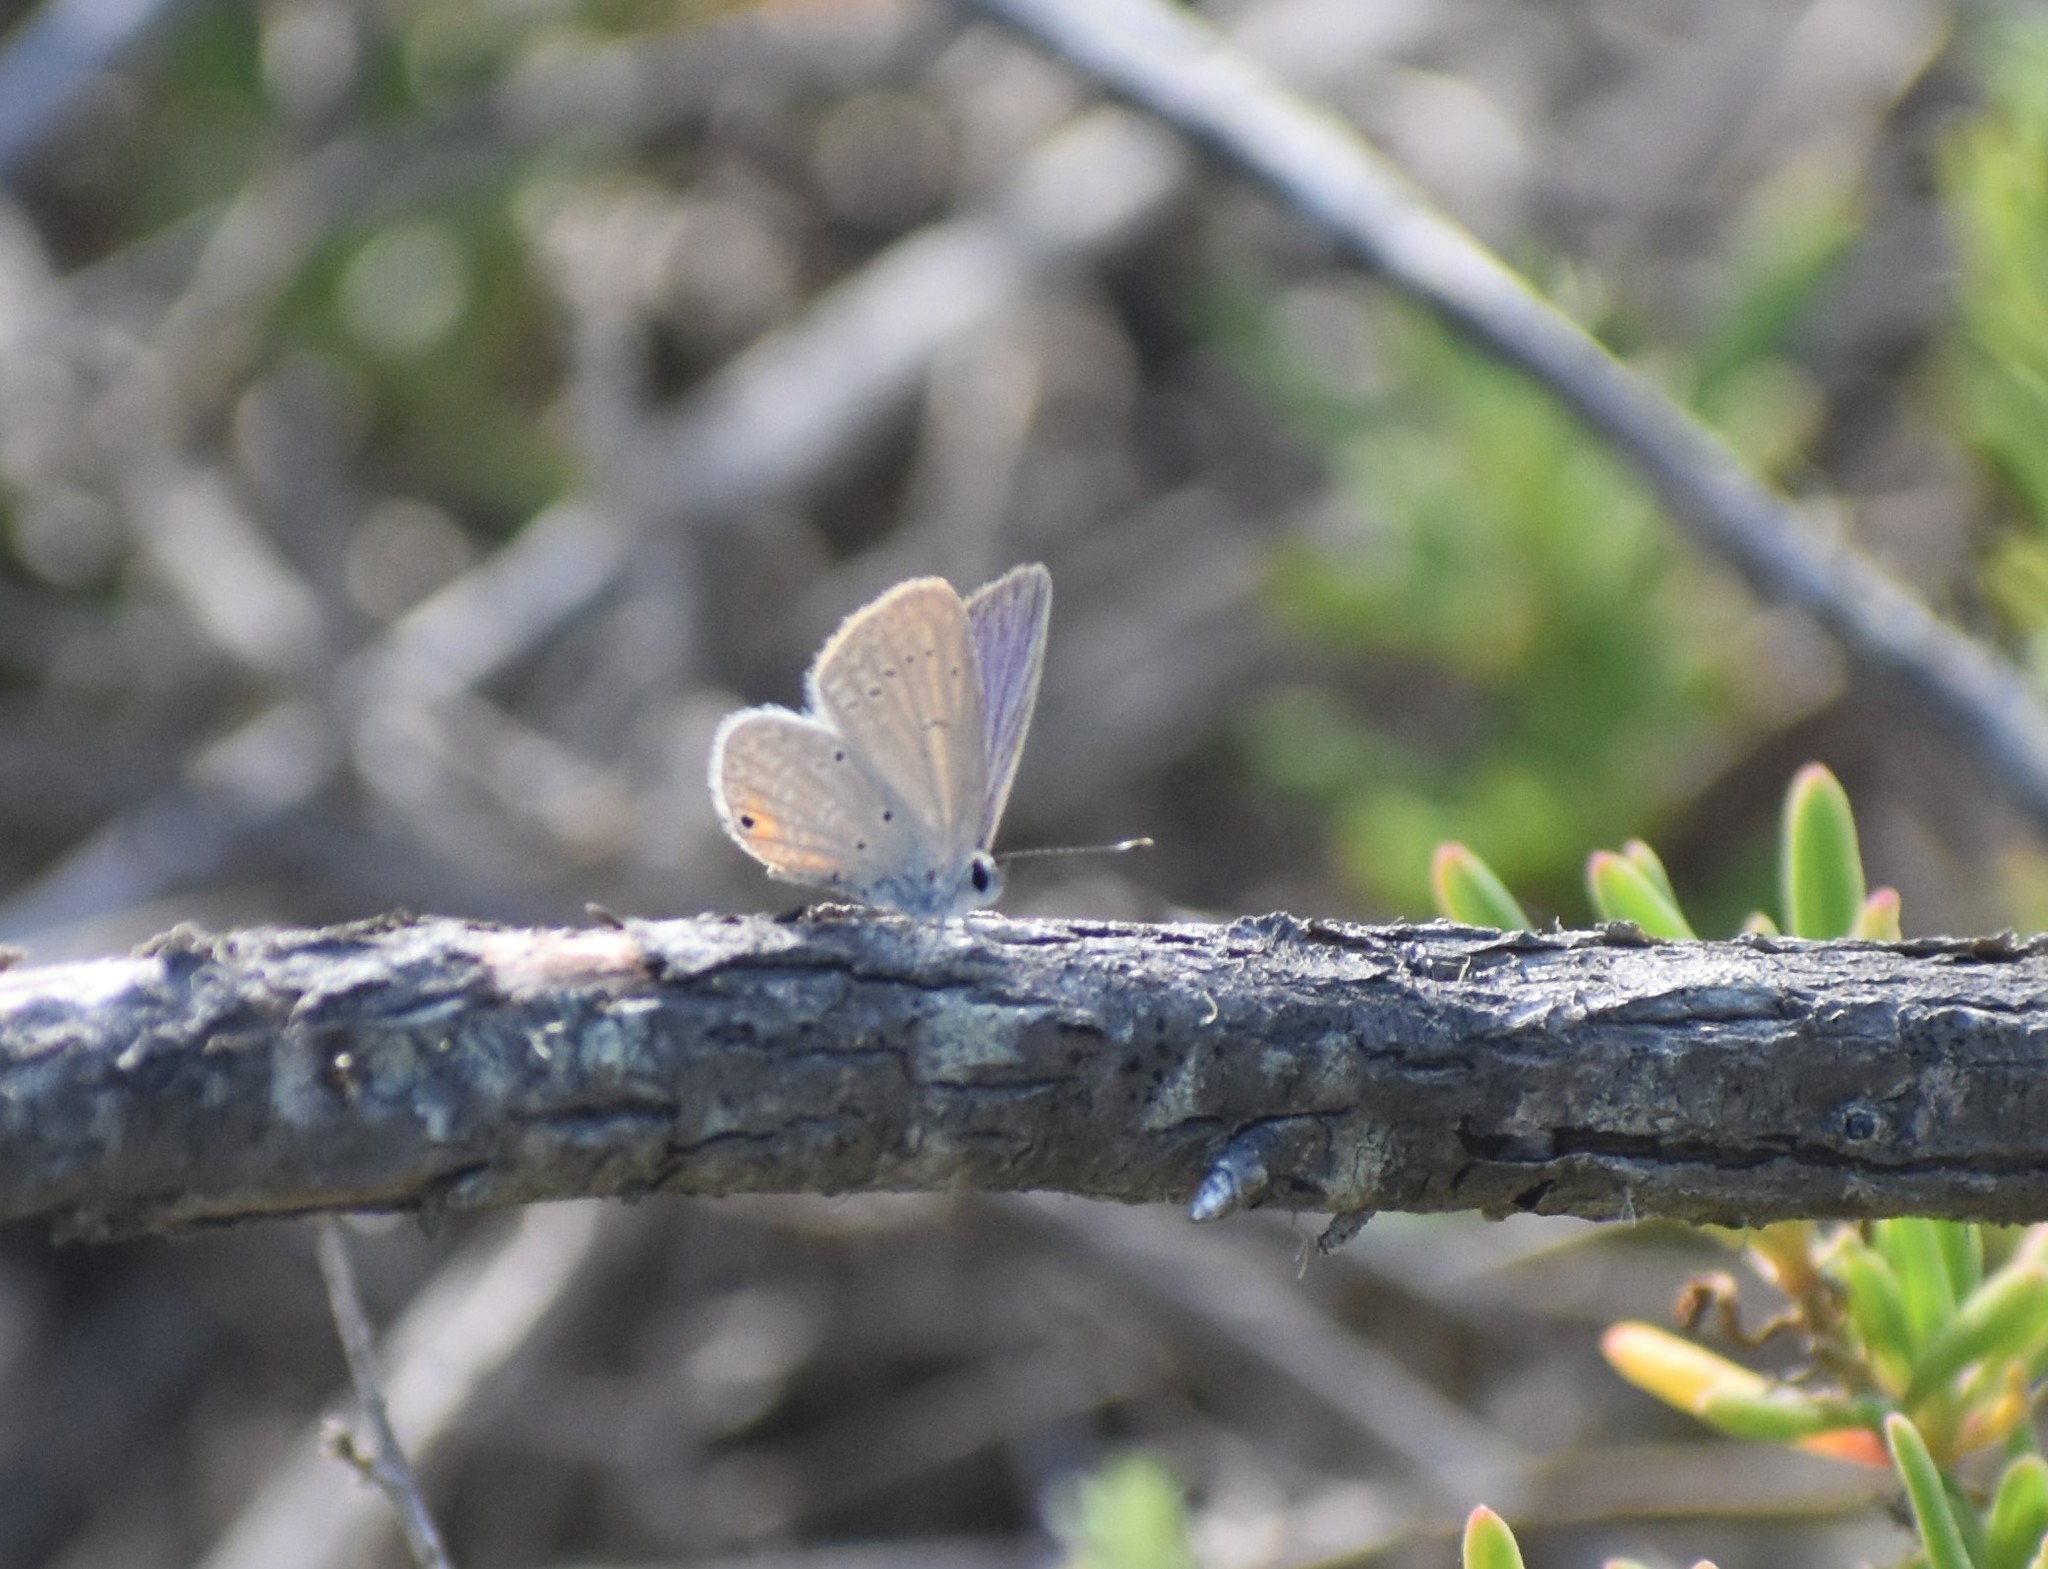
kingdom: Animalia
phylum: Arthropoda
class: Insecta
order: Lepidoptera
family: Lycaenidae
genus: Eicochrysops
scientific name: Eicochrysops messapus
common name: Cupreous blue
